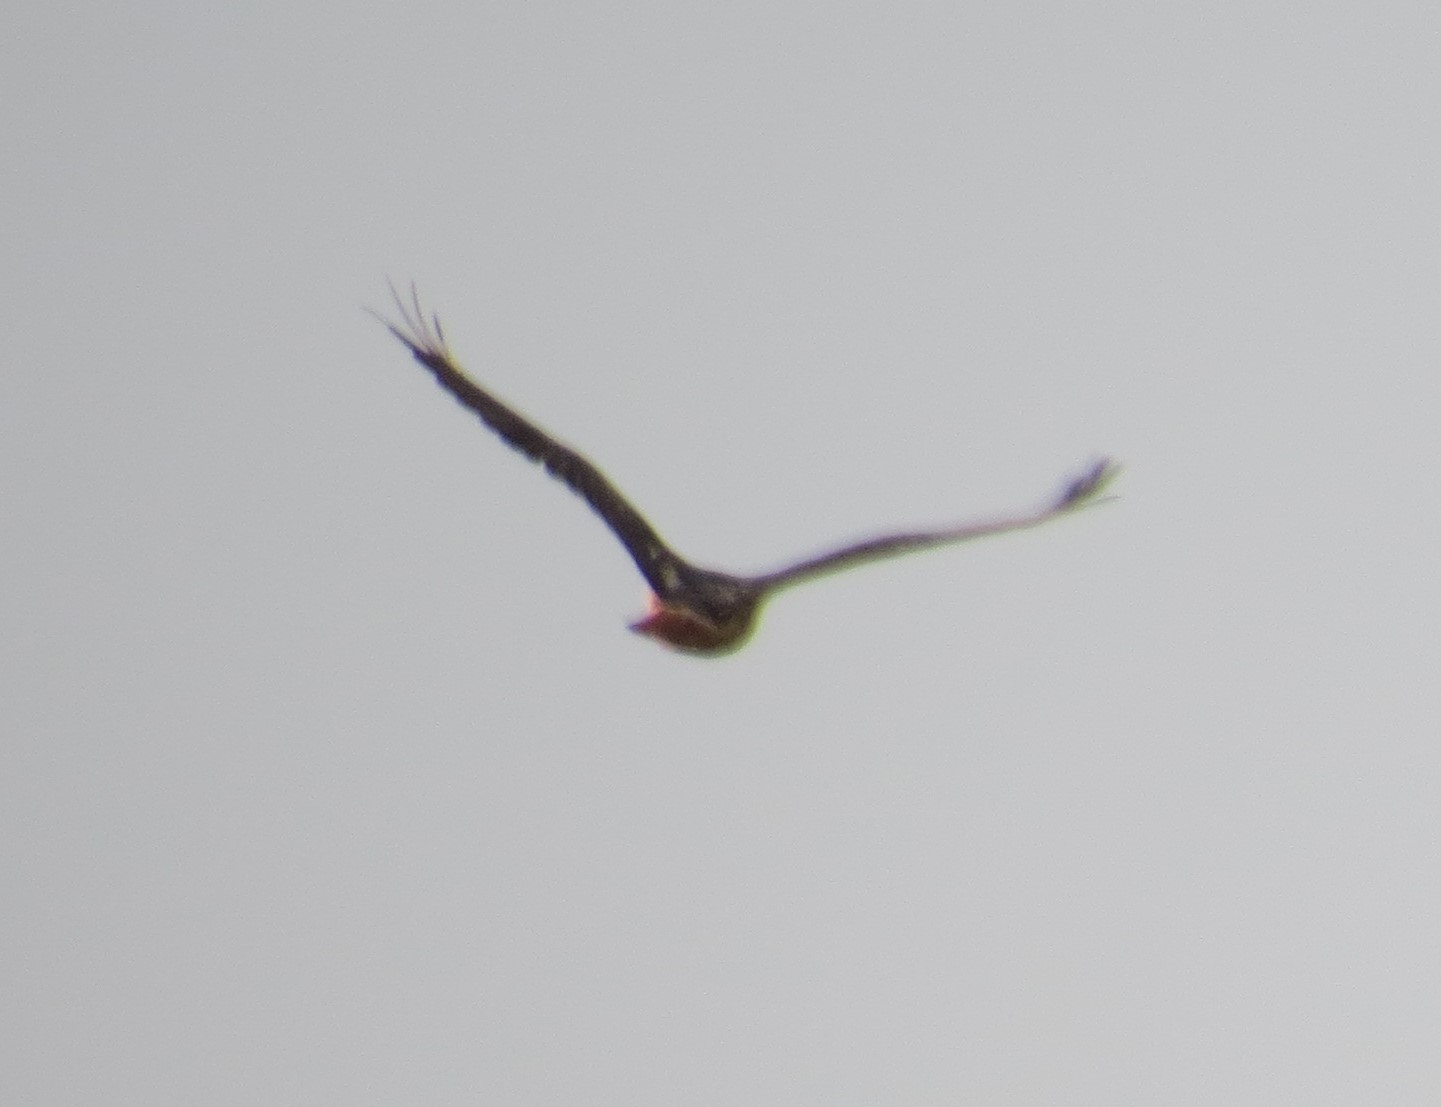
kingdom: Animalia
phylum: Chordata
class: Aves
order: Accipitriformes
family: Accipitridae
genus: Buteo
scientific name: Buteo jamaicensis
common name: Red-tailed hawk
